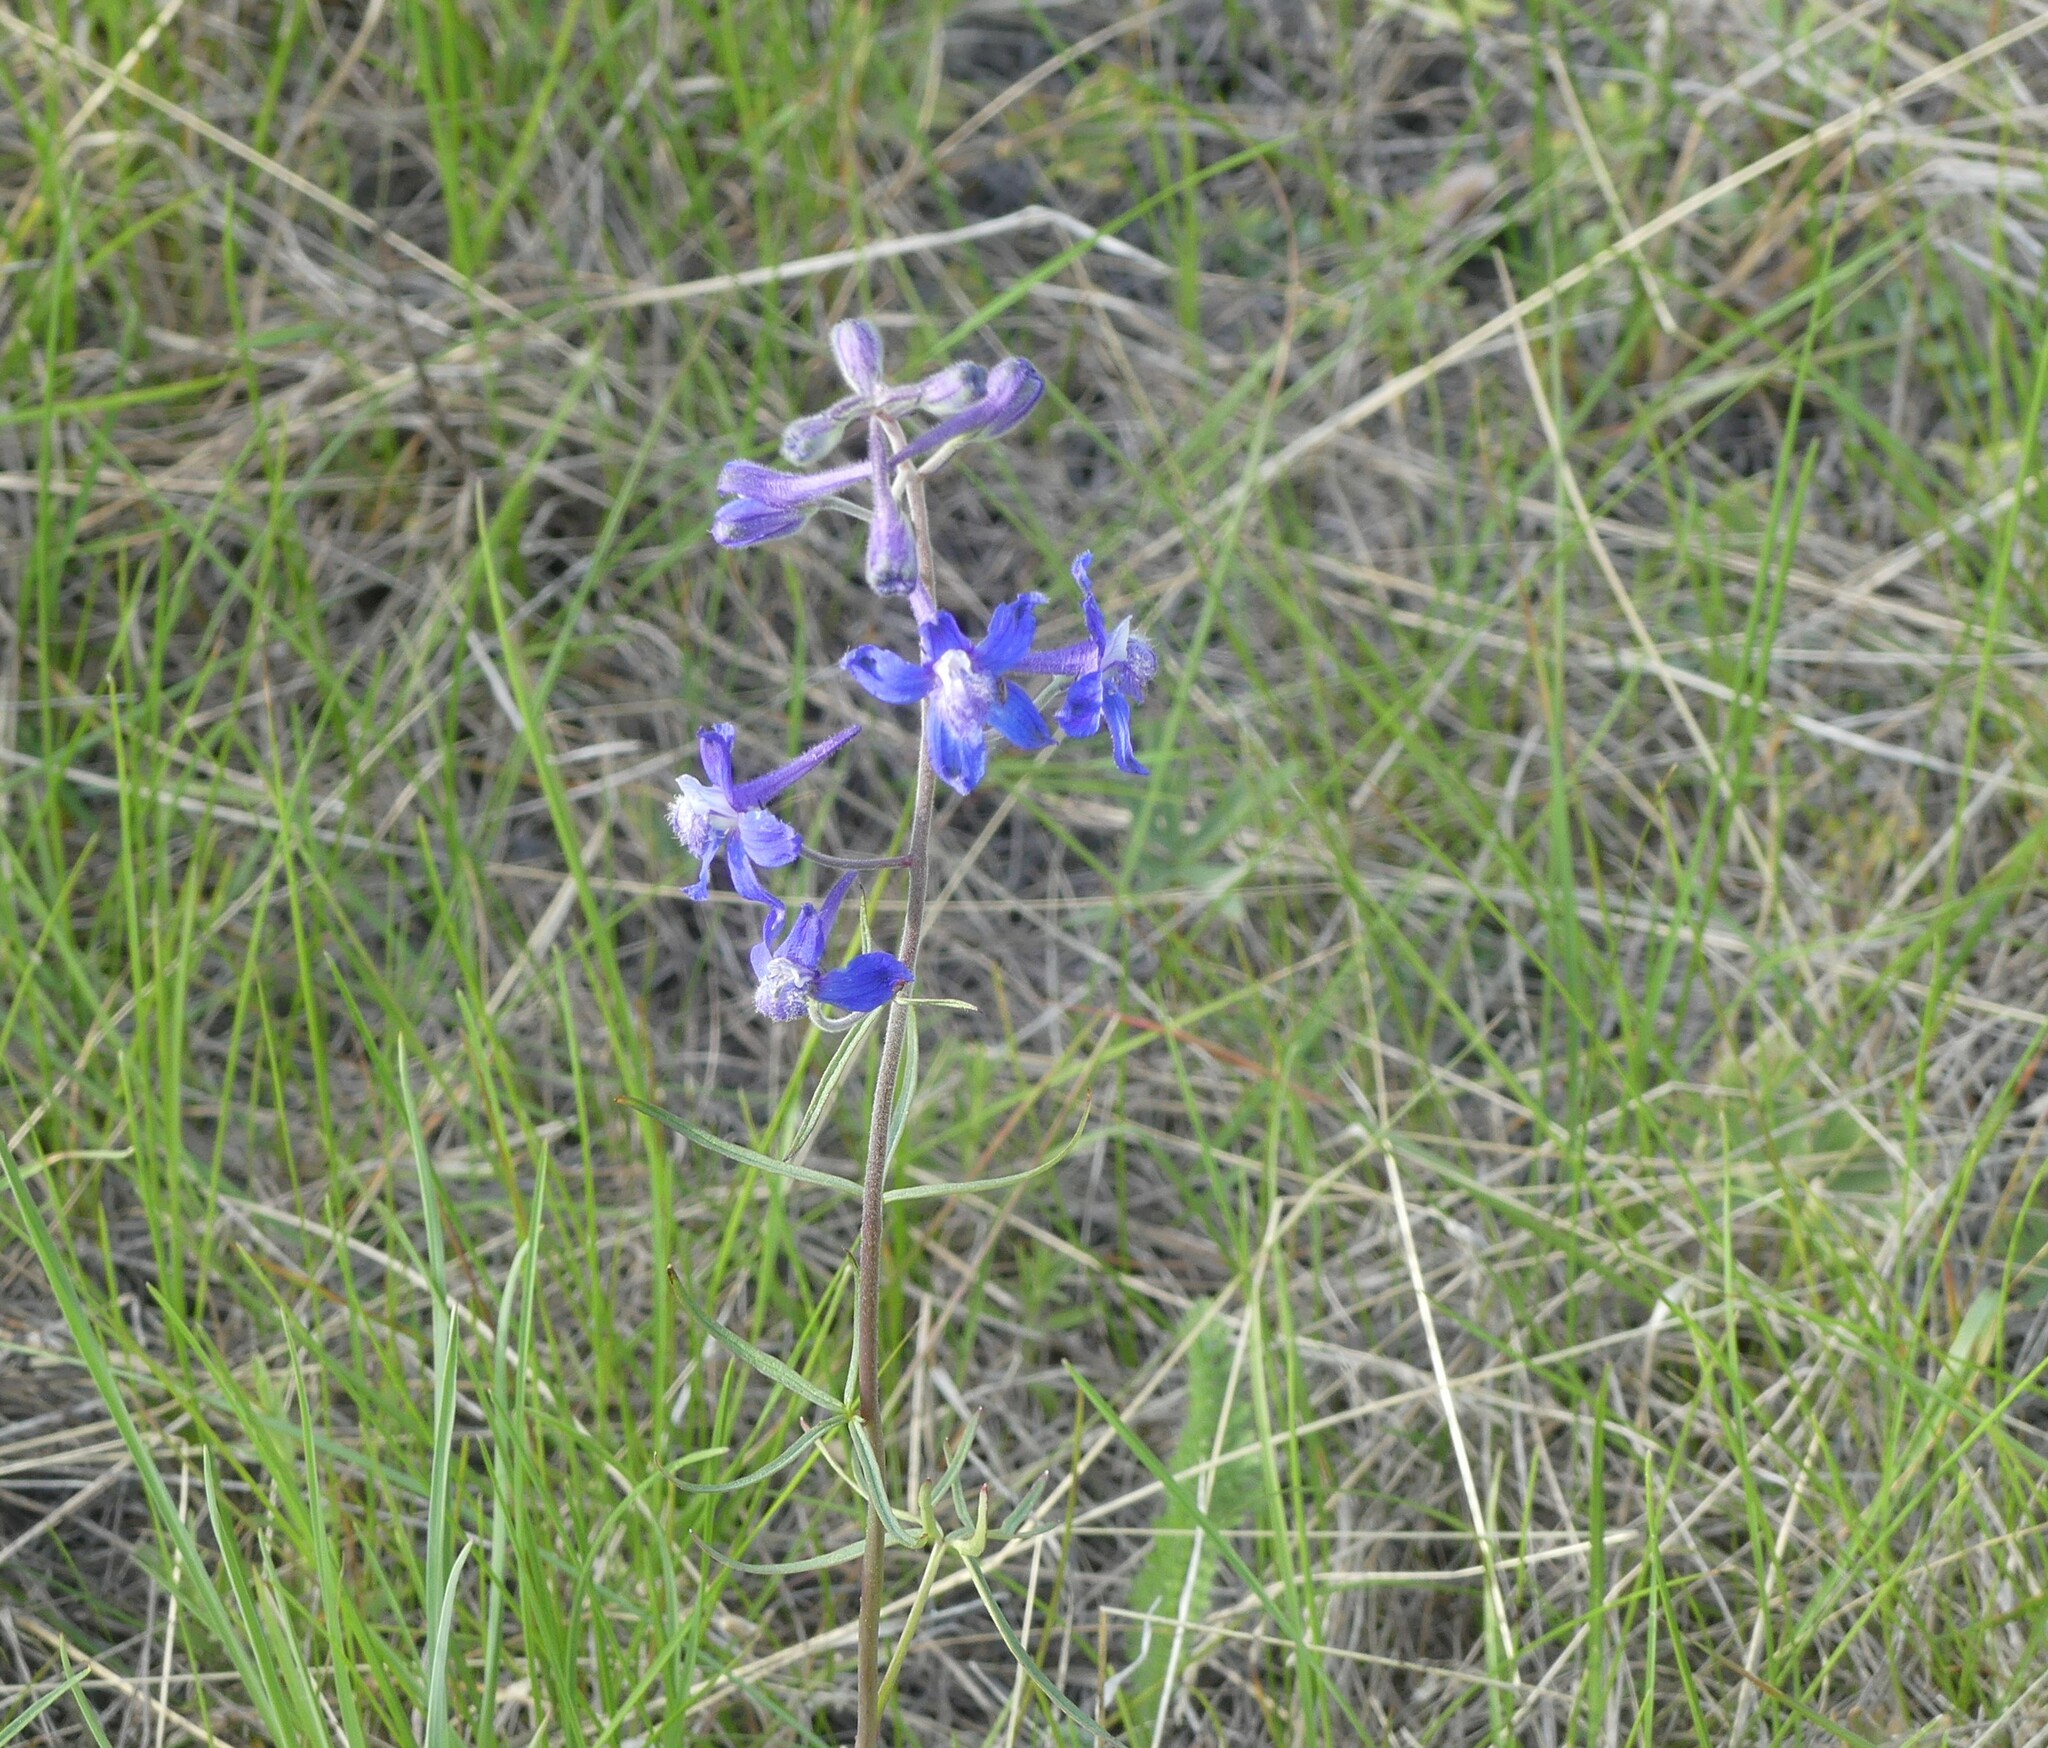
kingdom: Plantae
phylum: Tracheophyta
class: Magnoliopsida
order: Ranunculales
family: Ranunculaceae
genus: Delphinium
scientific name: Delphinium nuttallianum
